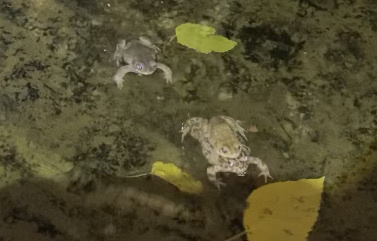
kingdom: Animalia
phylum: Chordata
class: Amphibia
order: Anura
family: Bufonidae
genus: Bufotes
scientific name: Bufotes viridis
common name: European green toad
